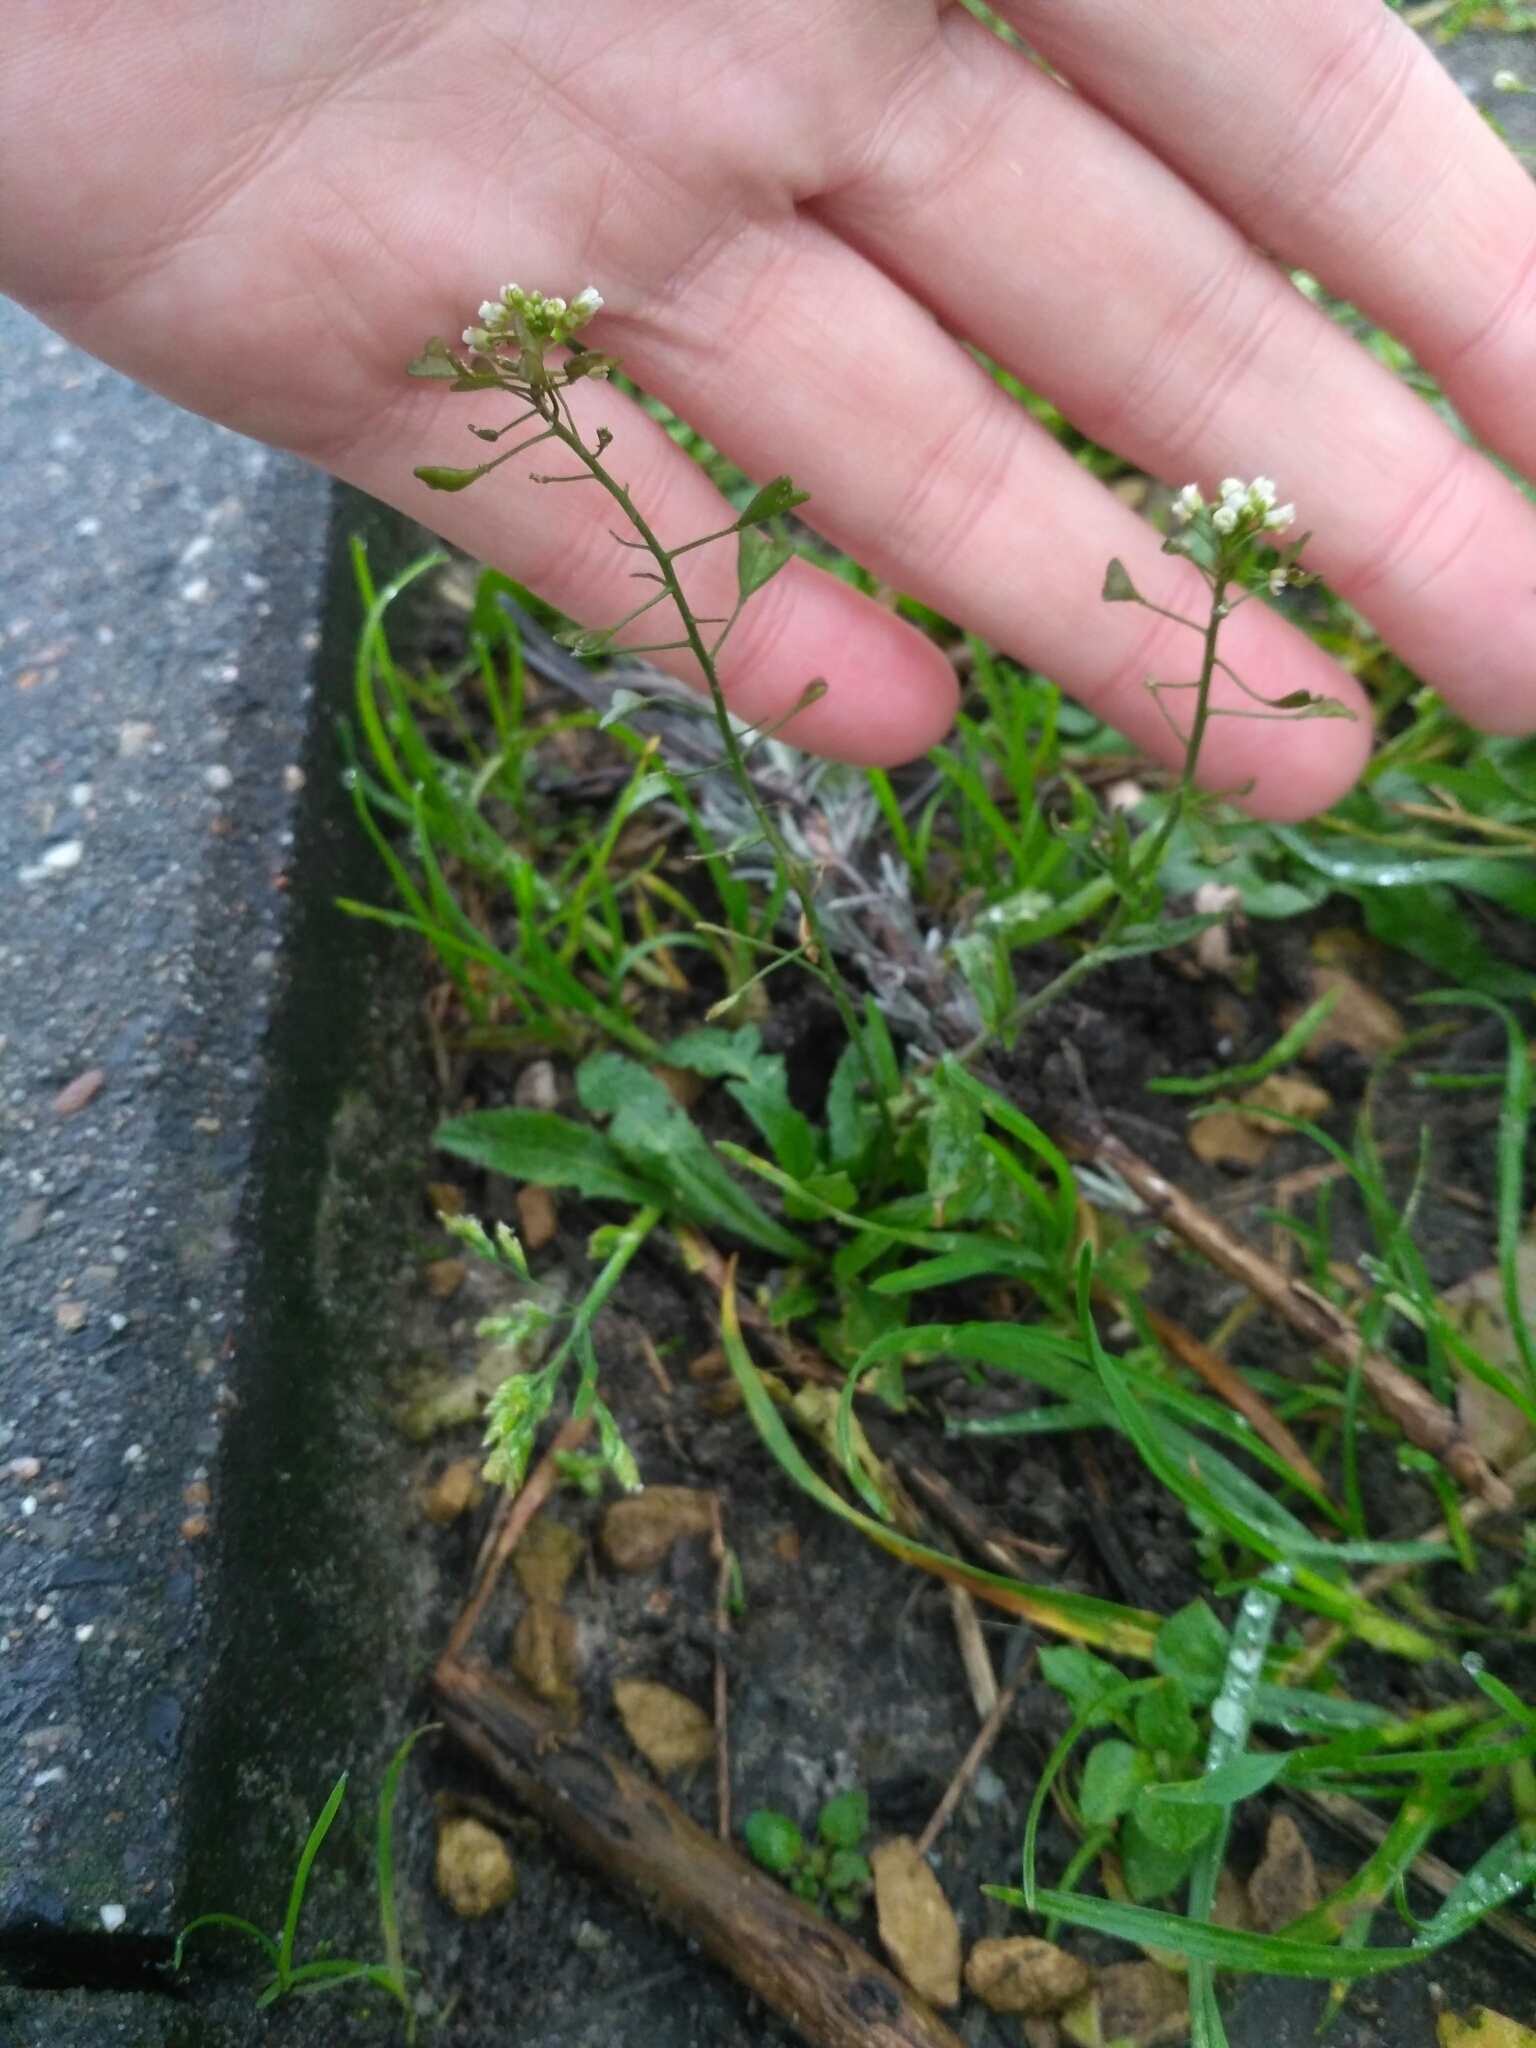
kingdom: Plantae
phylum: Tracheophyta
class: Magnoliopsida
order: Brassicales
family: Brassicaceae
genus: Capsella
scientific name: Capsella bursa-pastoris
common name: Shepherd's purse
